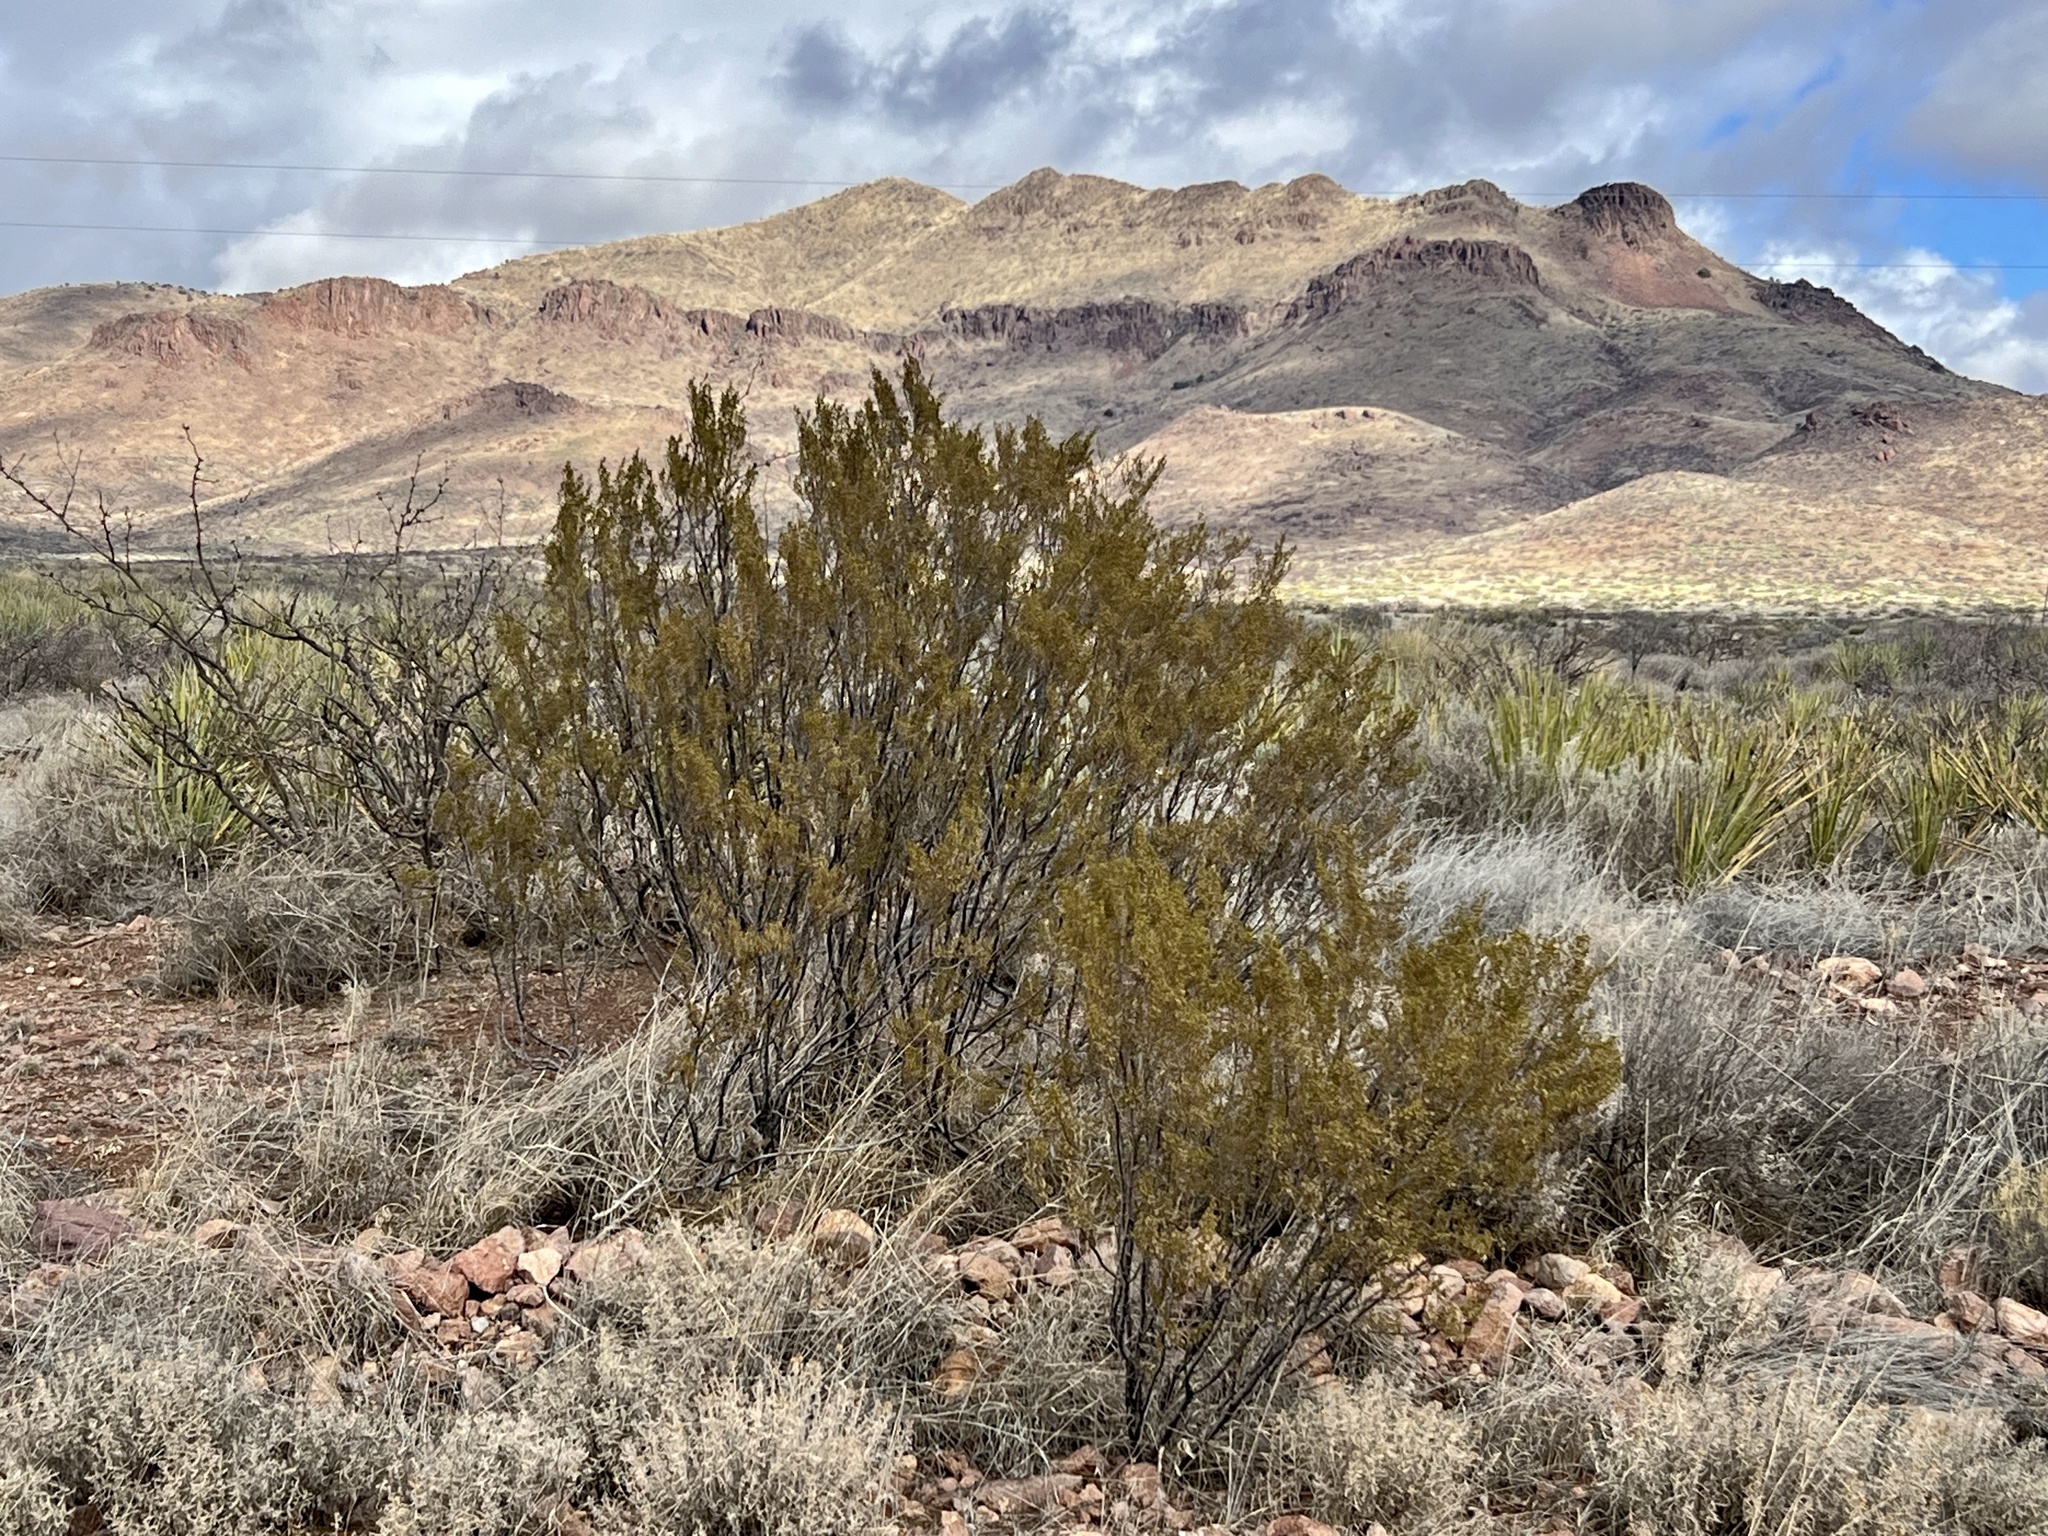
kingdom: Plantae
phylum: Tracheophyta
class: Magnoliopsida
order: Zygophyllales
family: Zygophyllaceae
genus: Larrea
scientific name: Larrea tridentata
